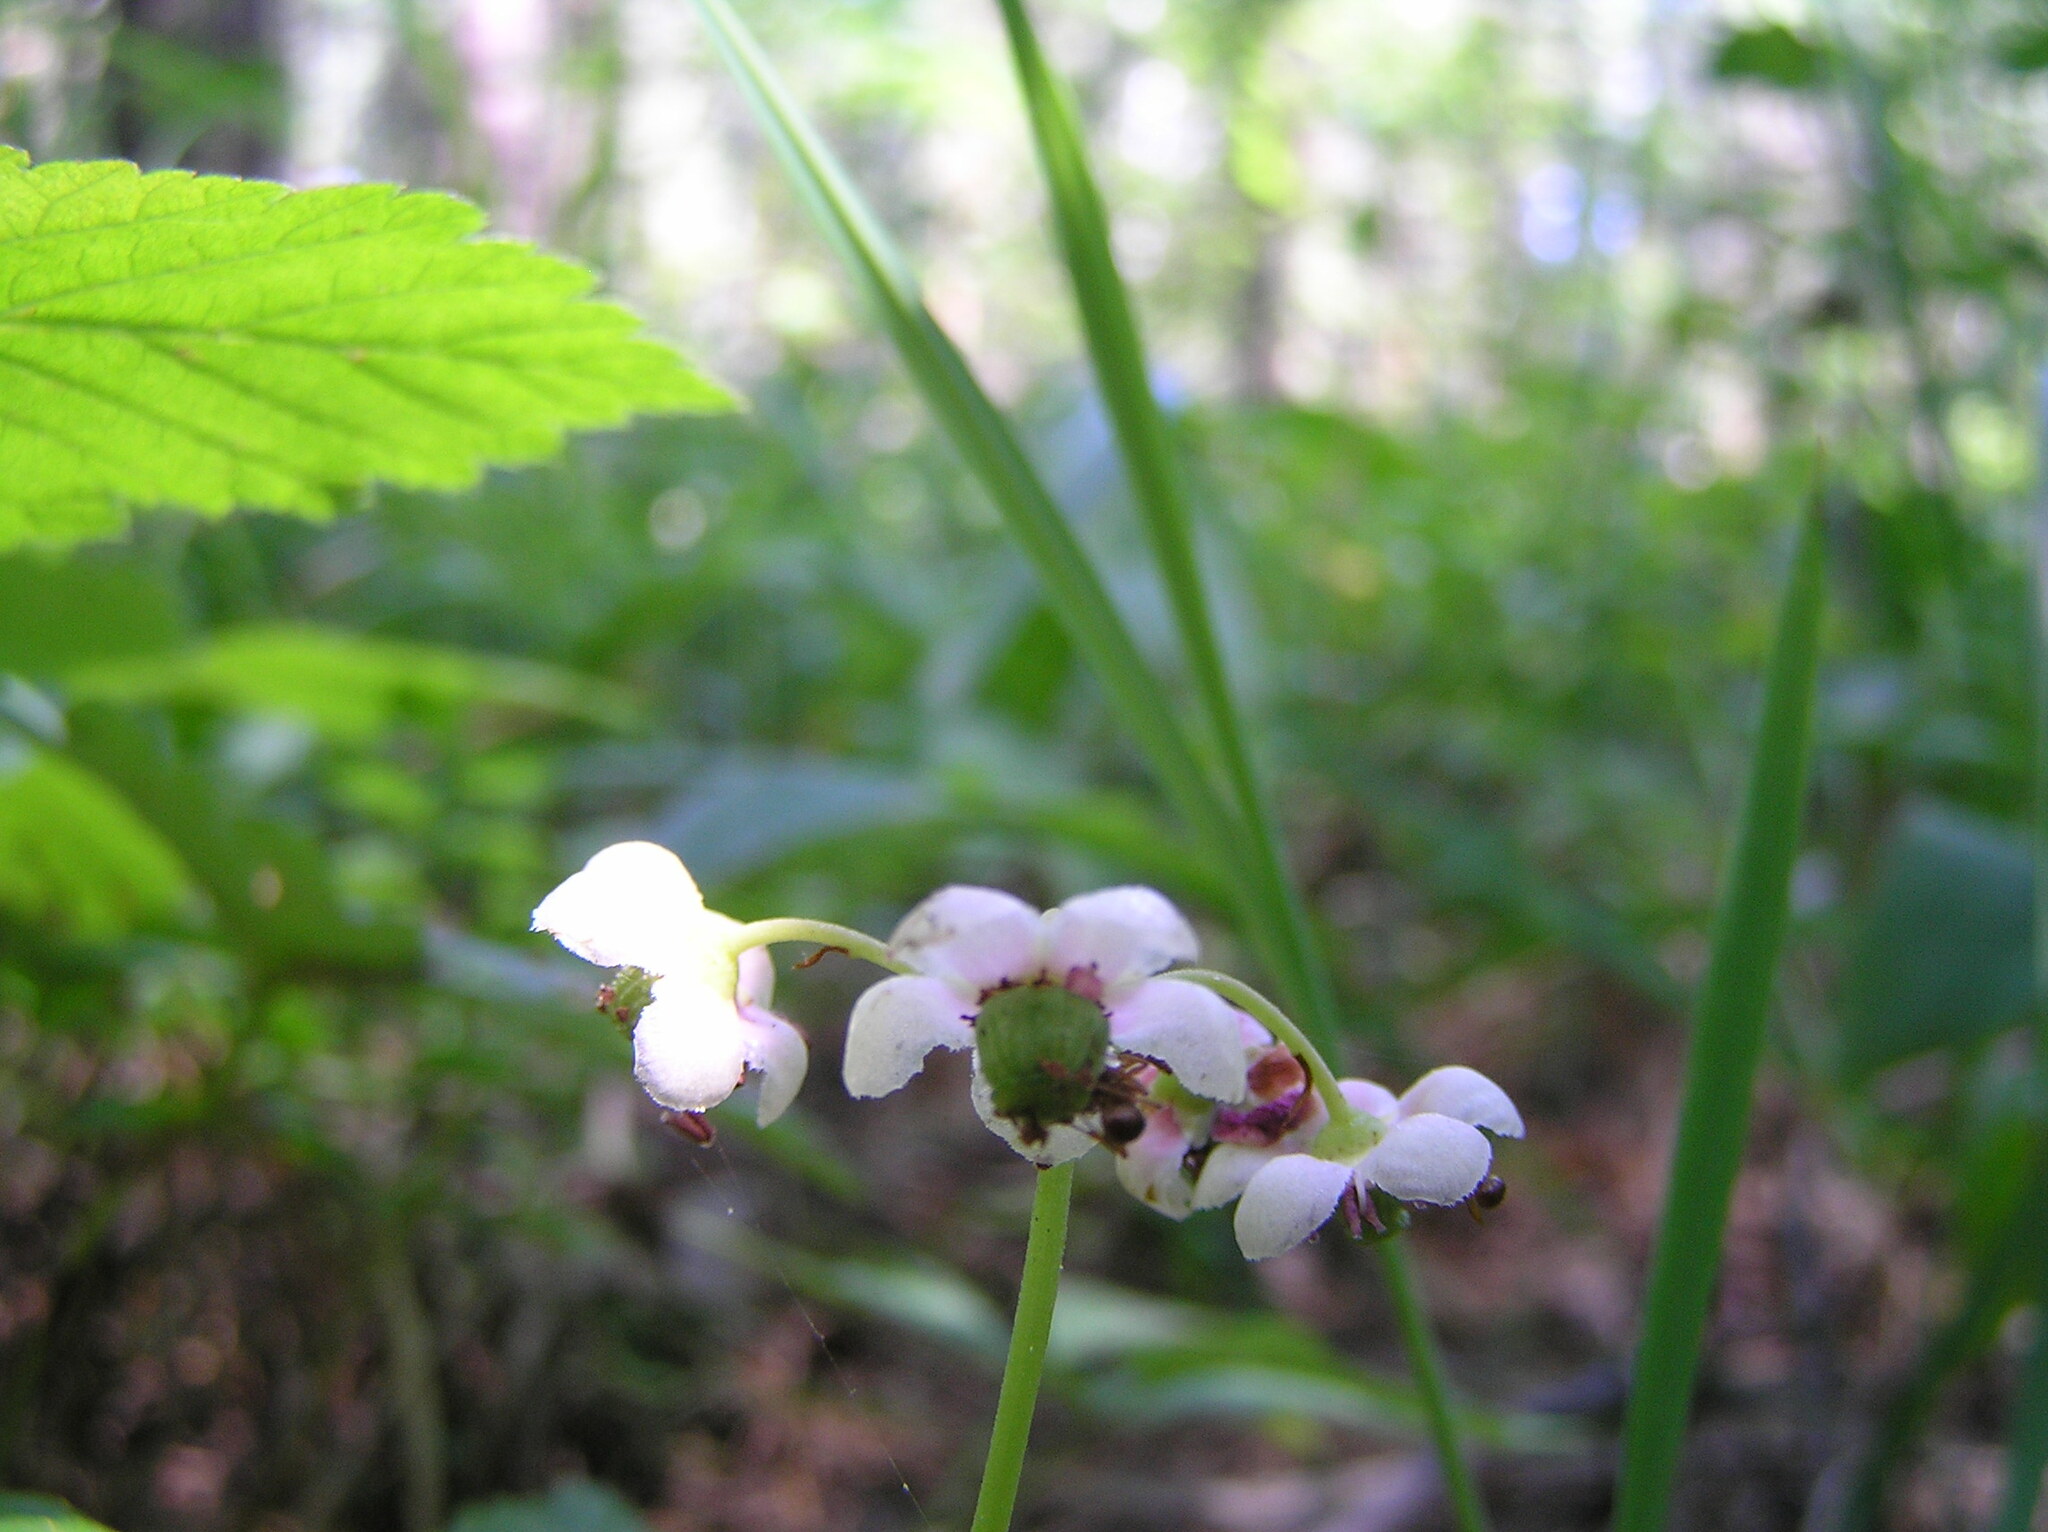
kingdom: Plantae
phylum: Tracheophyta
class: Magnoliopsida
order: Ericales
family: Ericaceae
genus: Chimaphila
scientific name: Chimaphila umbellata
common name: Pipsissewa
